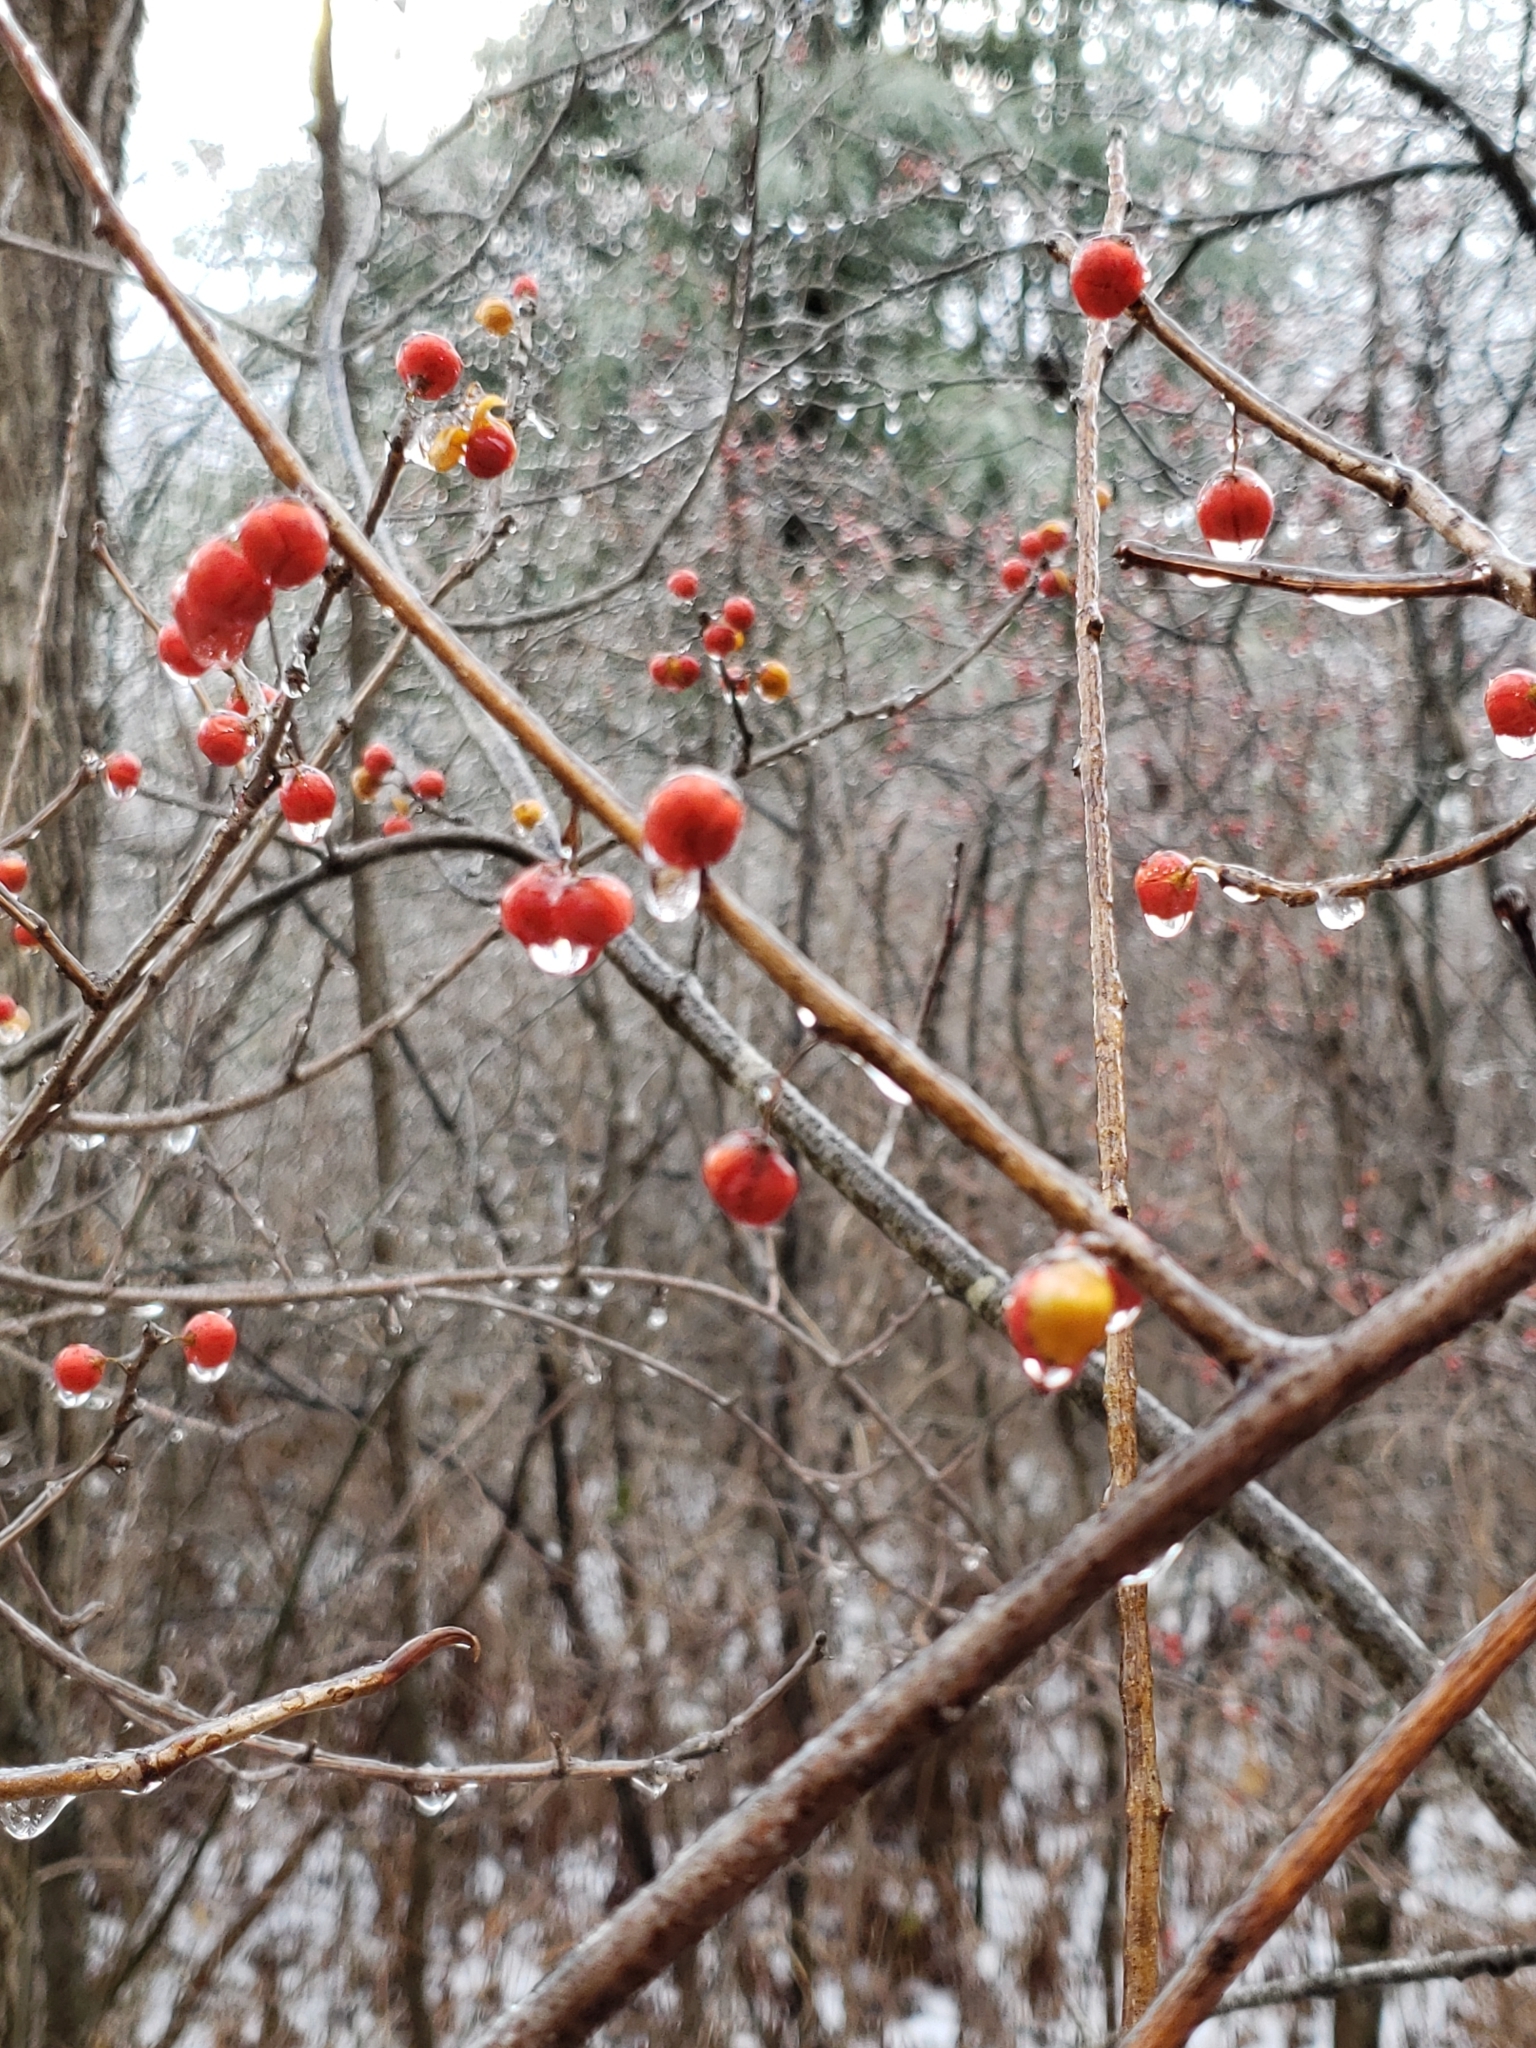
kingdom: Plantae
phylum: Tracheophyta
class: Magnoliopsida
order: Celastrales
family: Celastraceae
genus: Celastrus
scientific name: Celastrus orbiculatus
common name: Oriental bittersweet
